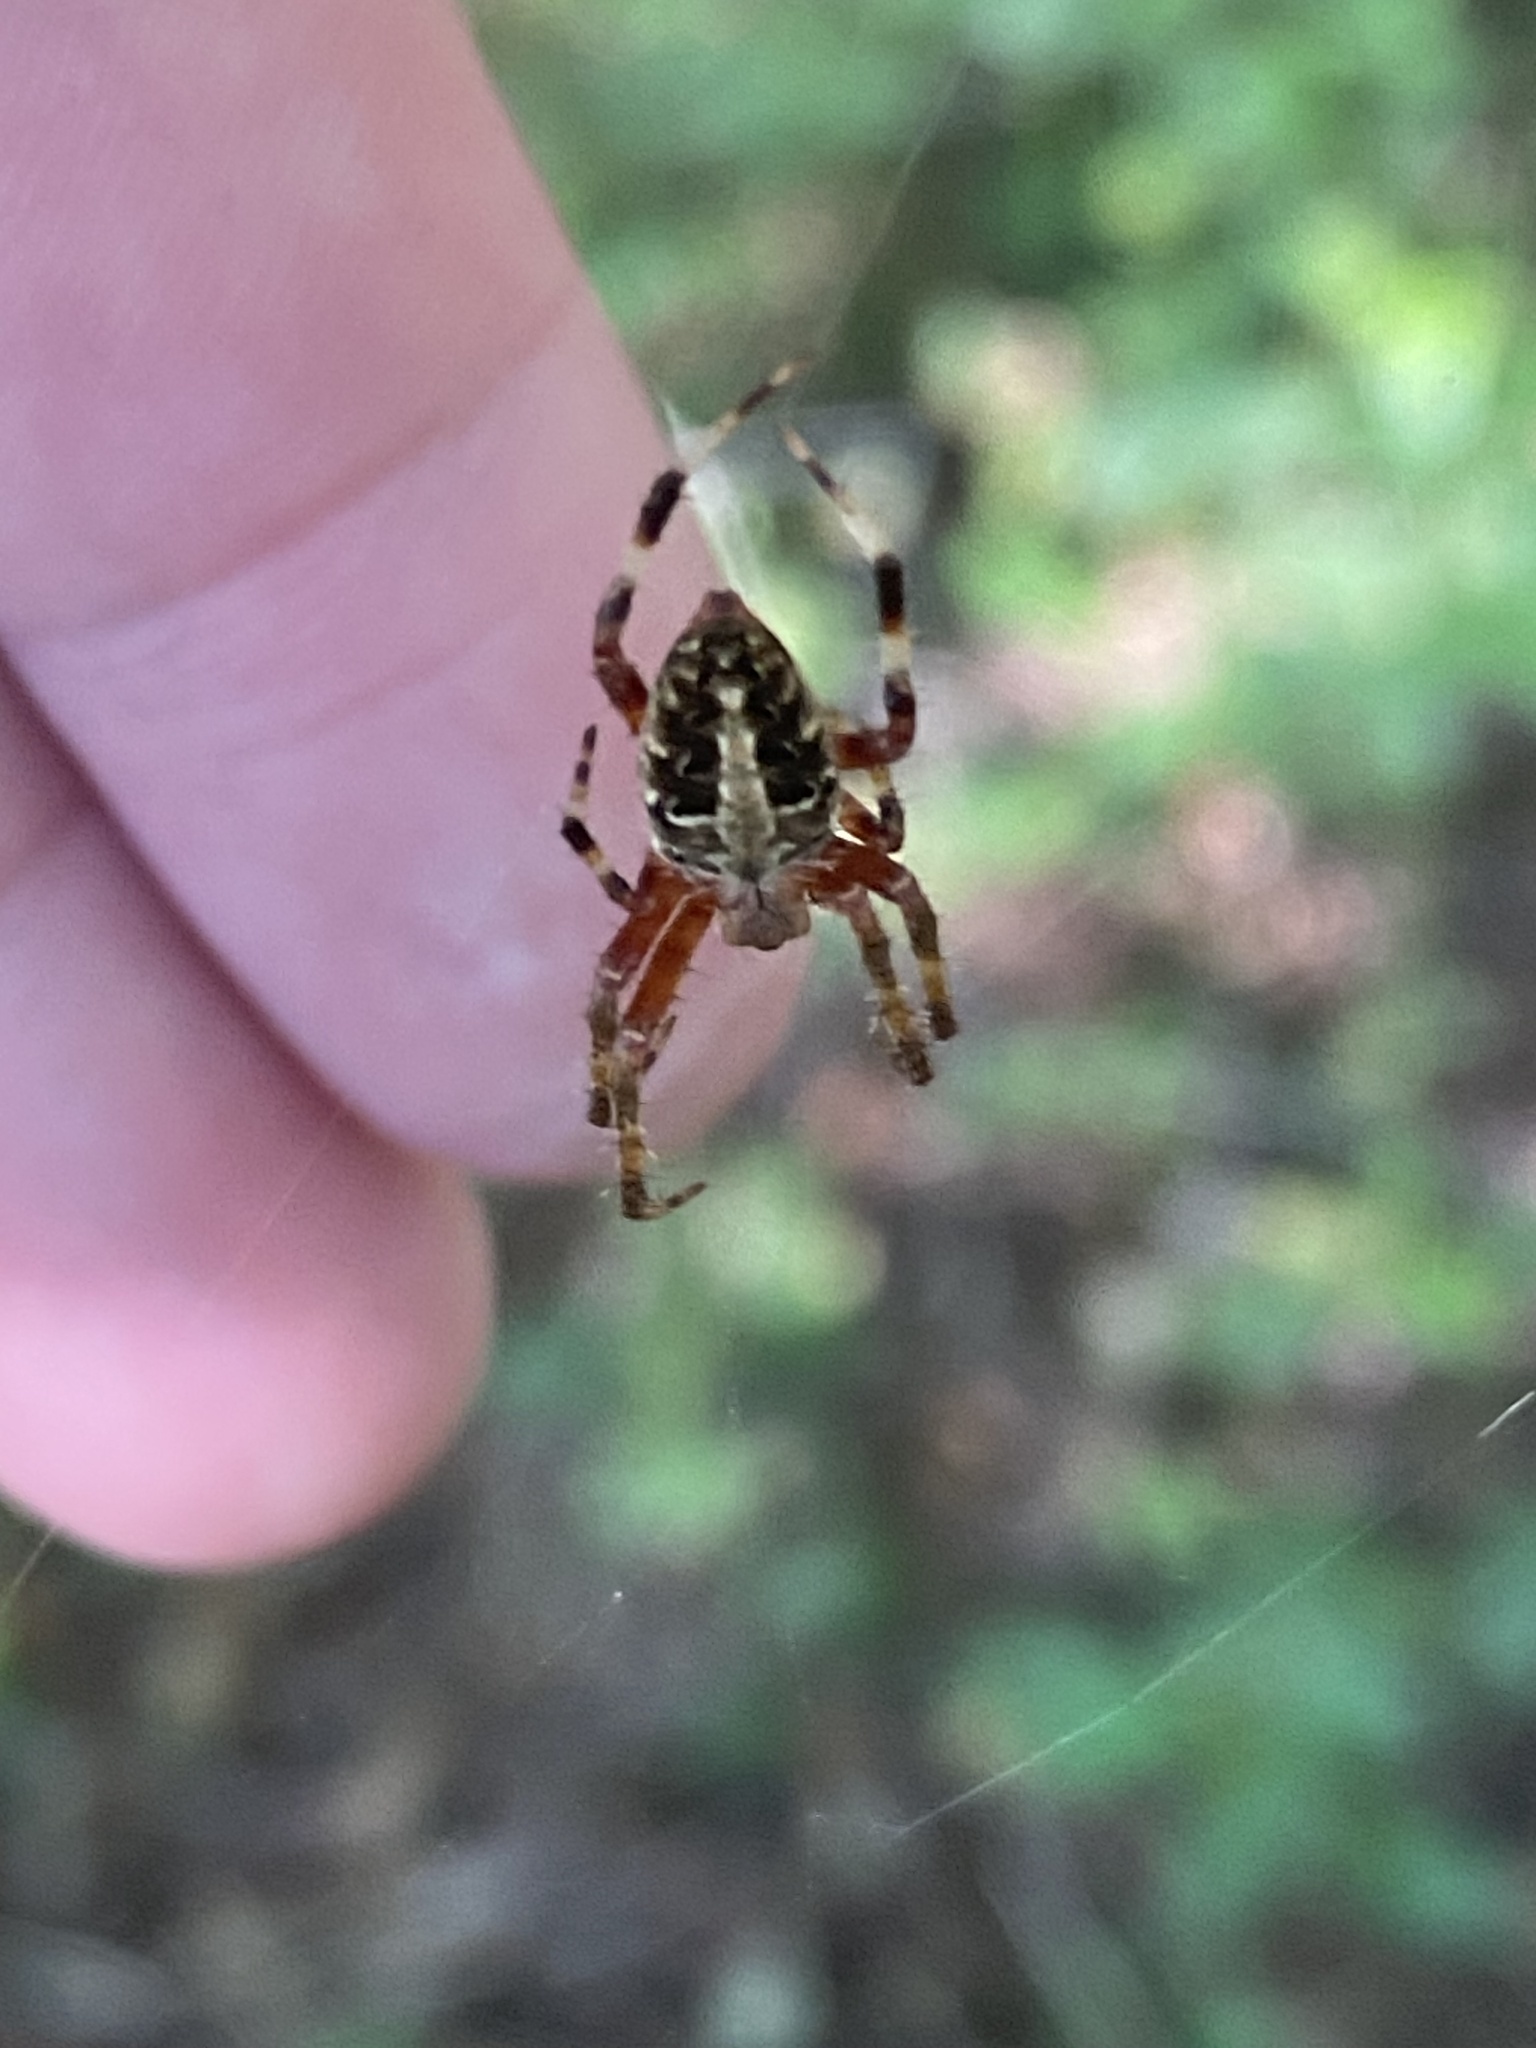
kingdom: Animalia
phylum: Arthropoda
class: Arachnida
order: Araneae
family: Araneidae
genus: Neoscona
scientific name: Neoscona domiciliorum
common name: Red-femured spotted orbweaver
